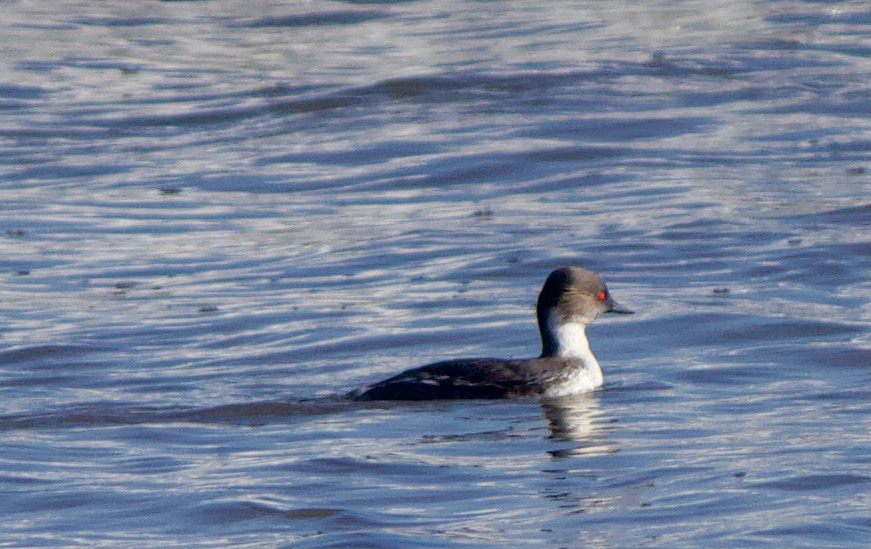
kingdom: Animalia
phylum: Chordata
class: Aves
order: Podicipediformes
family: Podicipedidae
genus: Podiceps
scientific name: Podiceps occipitalis
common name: Silvery grebe
